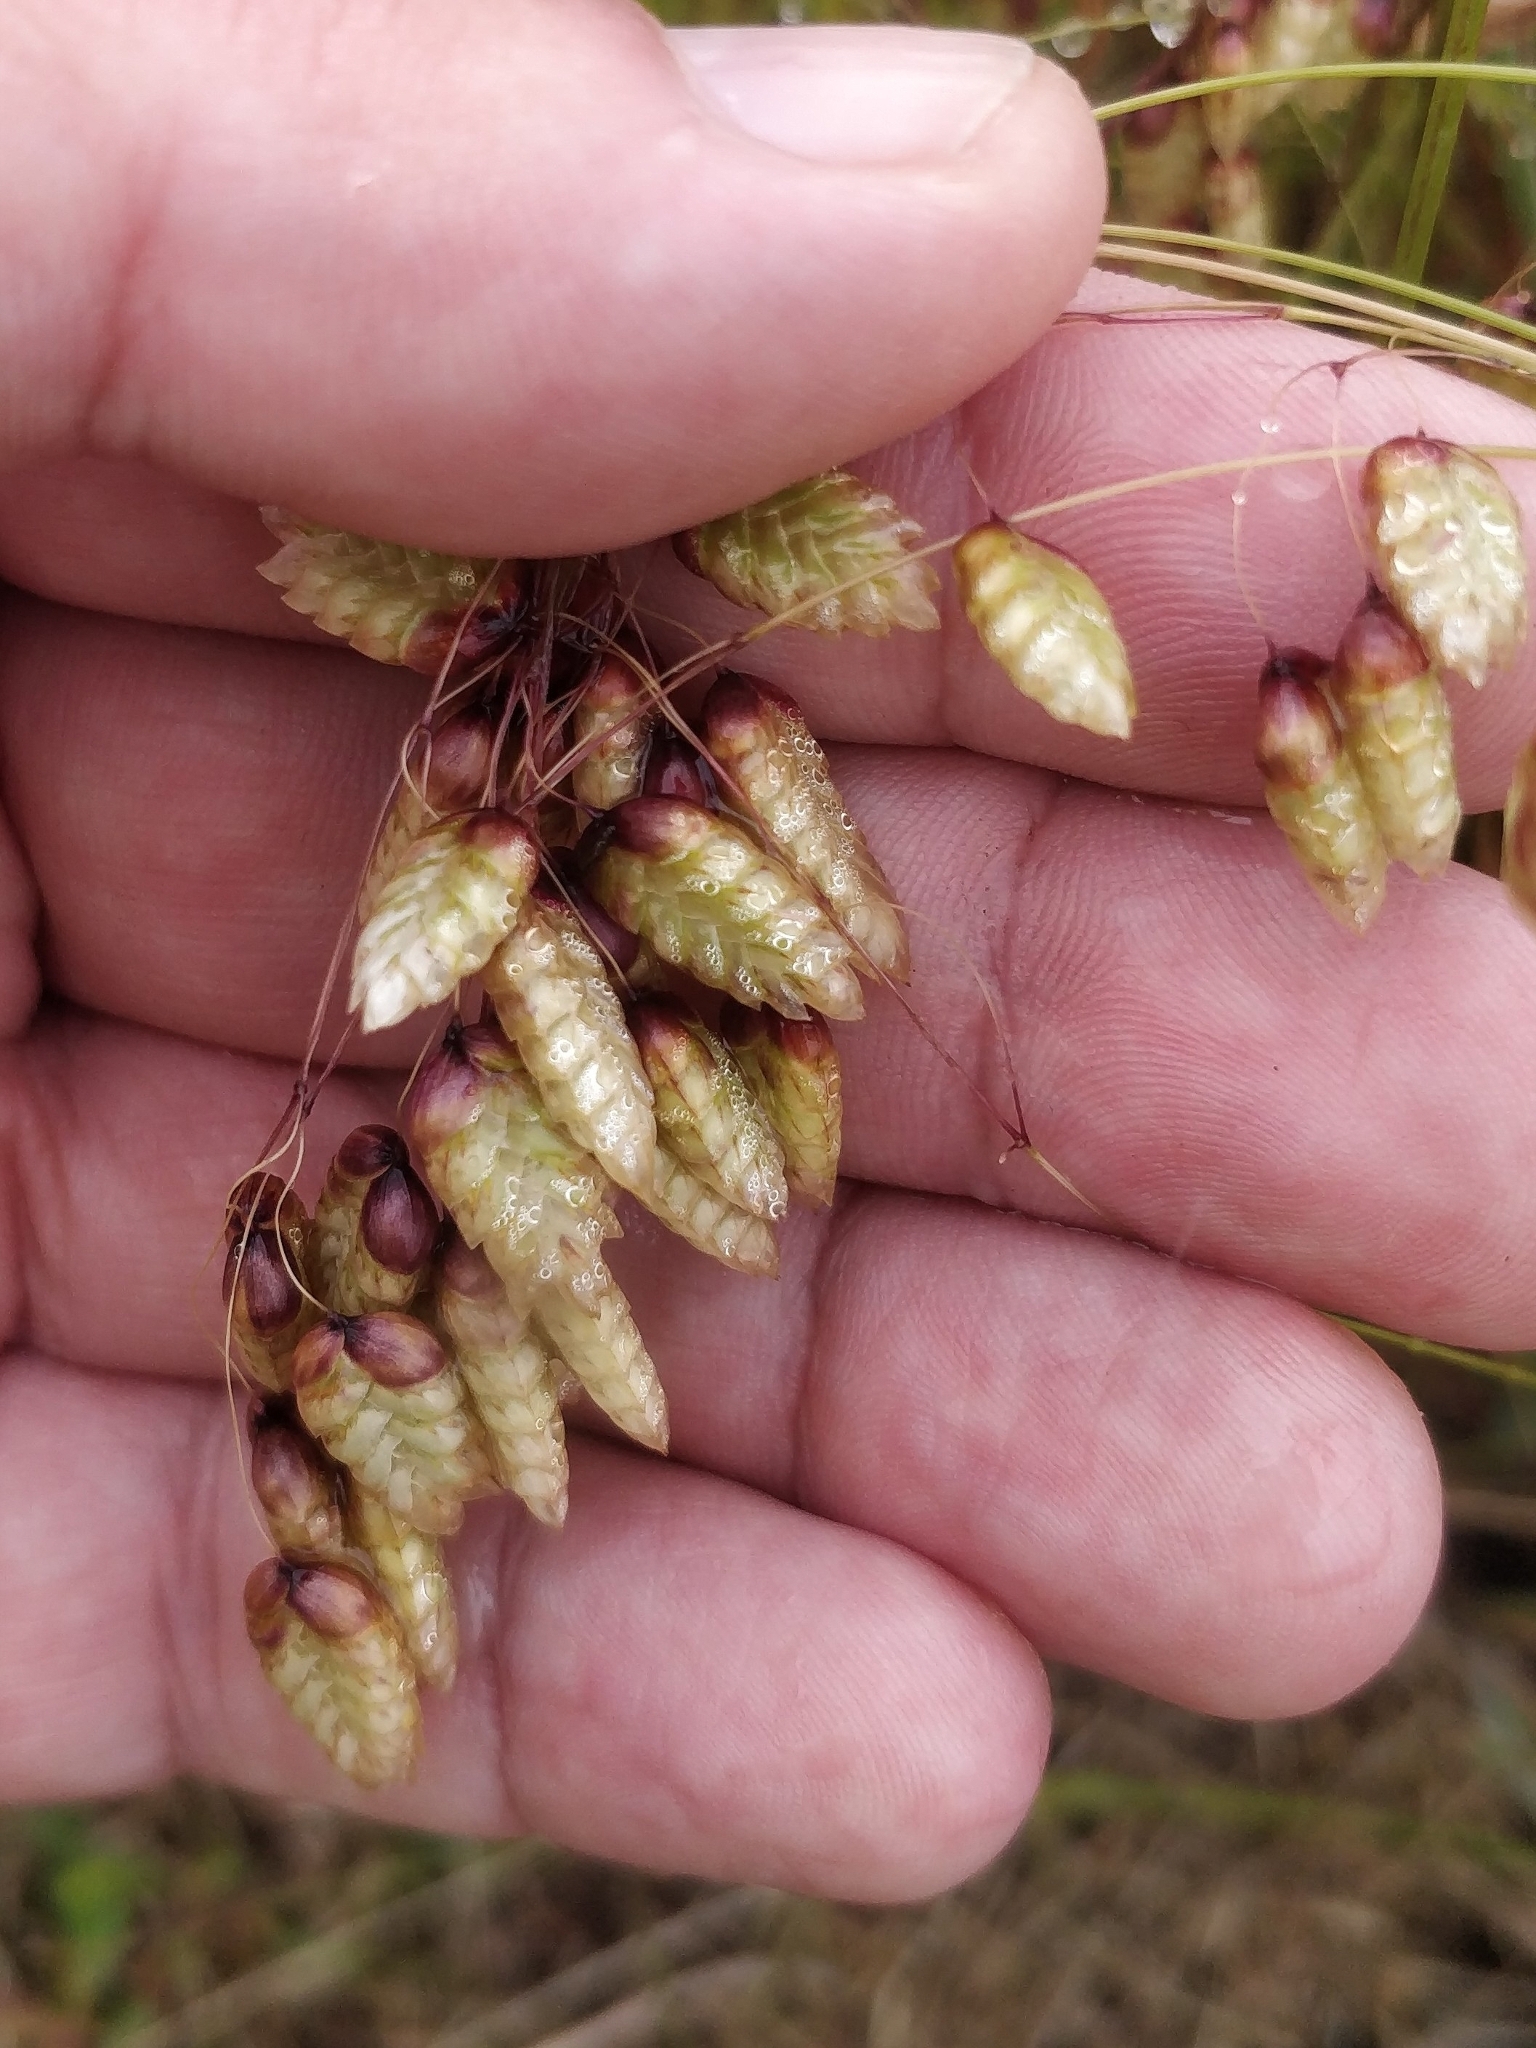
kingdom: Plantae
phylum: Tracheophyta
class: Liliopsida
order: Poales
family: Poaceae
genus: Briza
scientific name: Briza maxima
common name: Big quakinggrass
